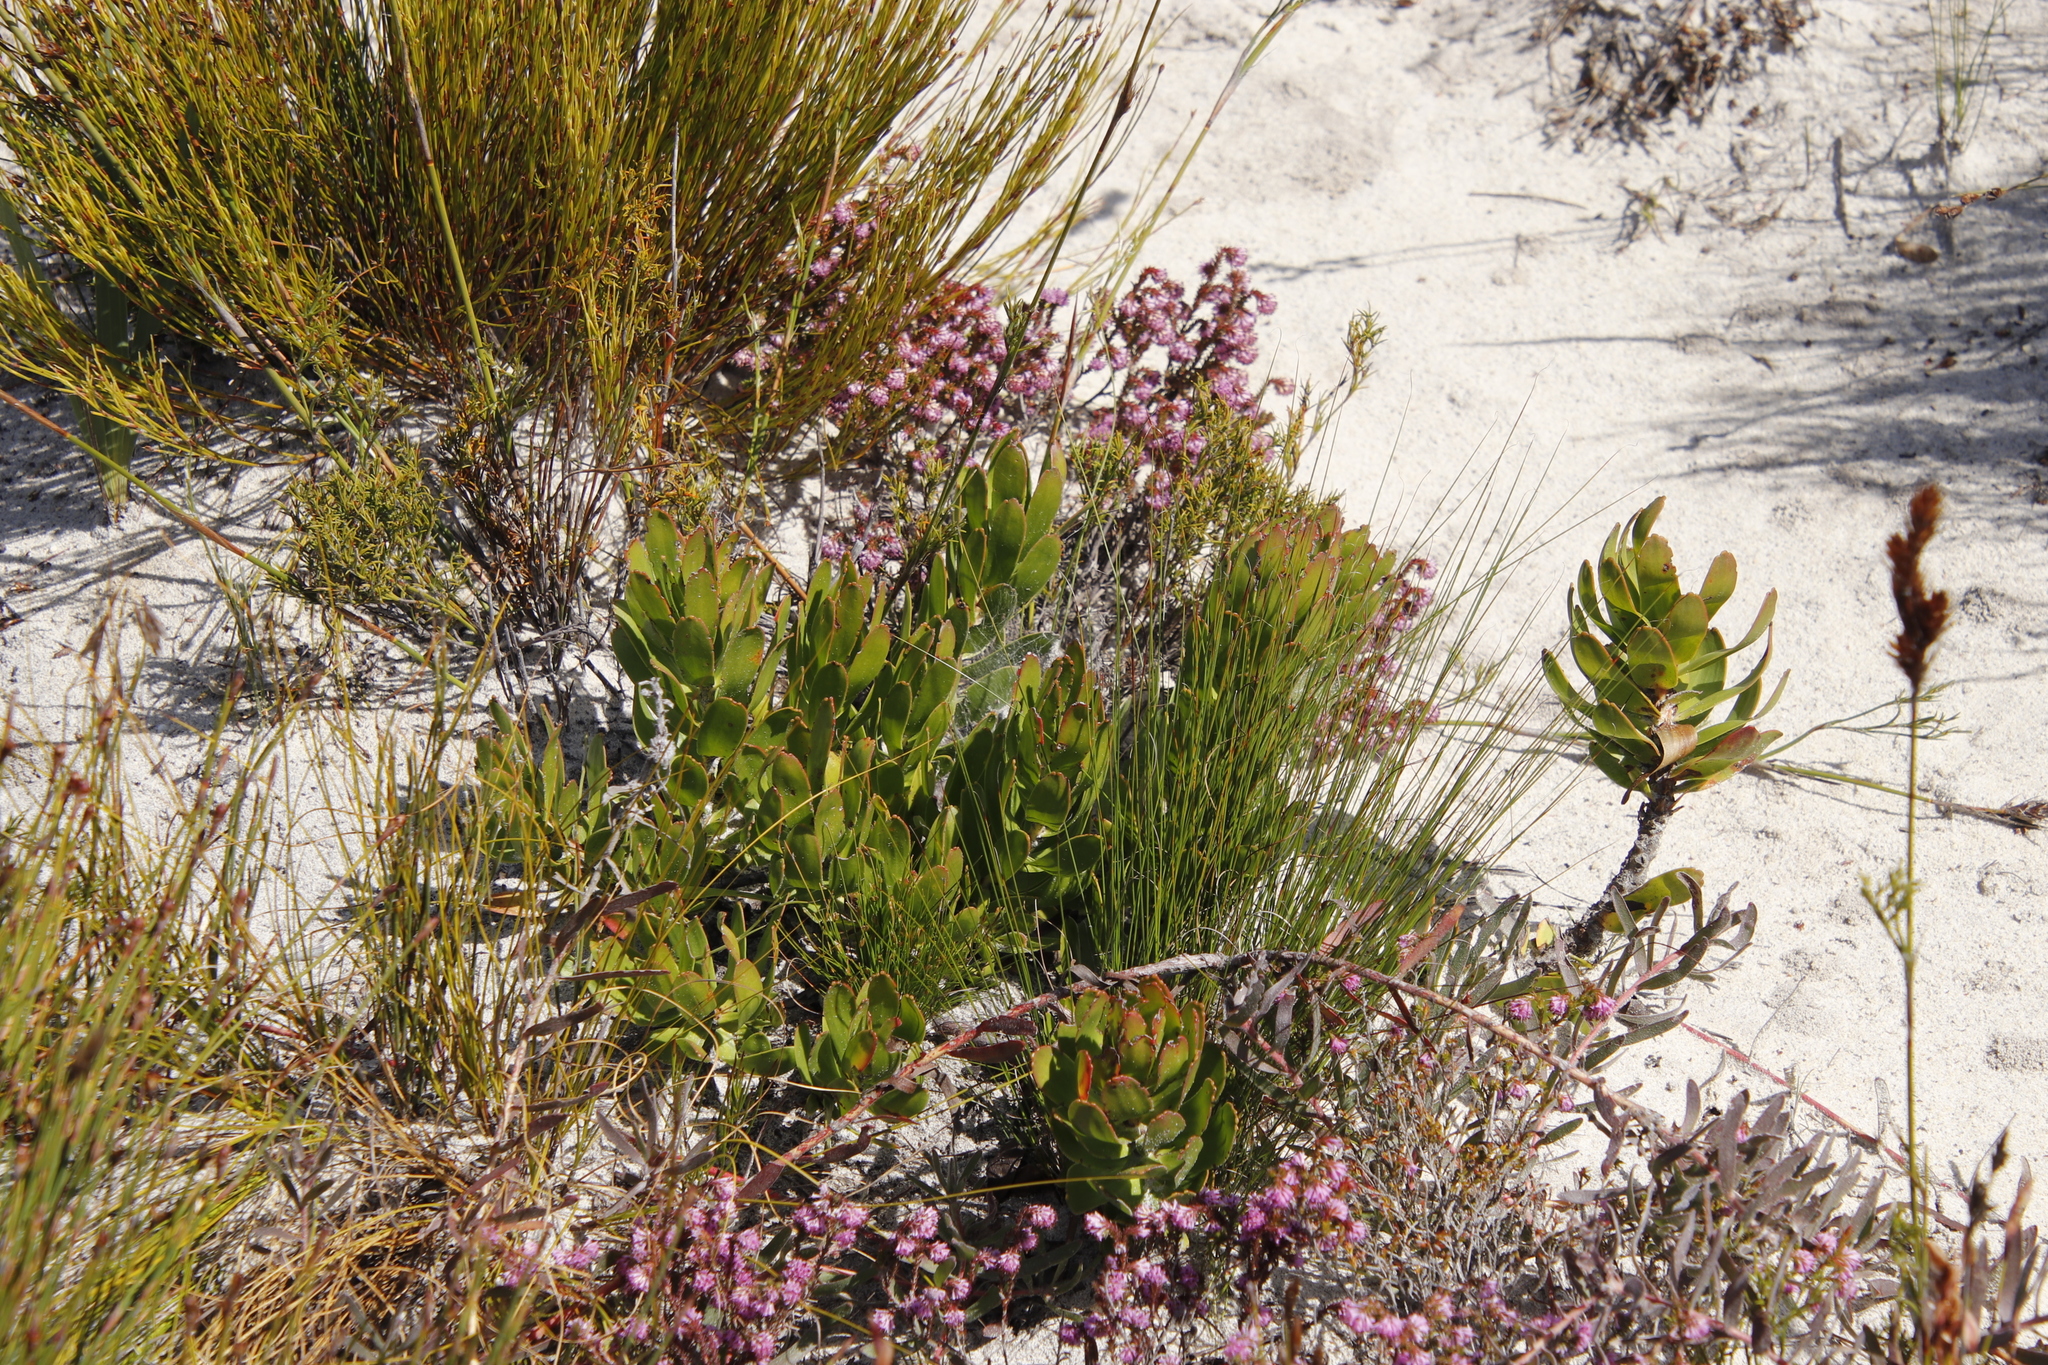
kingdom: Plantae
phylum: Tracheophyta
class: Magnoliopsida
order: Proteales
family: Proteaceae
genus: Mimetes
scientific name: Mimetes cucullatus
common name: Common pagoda
